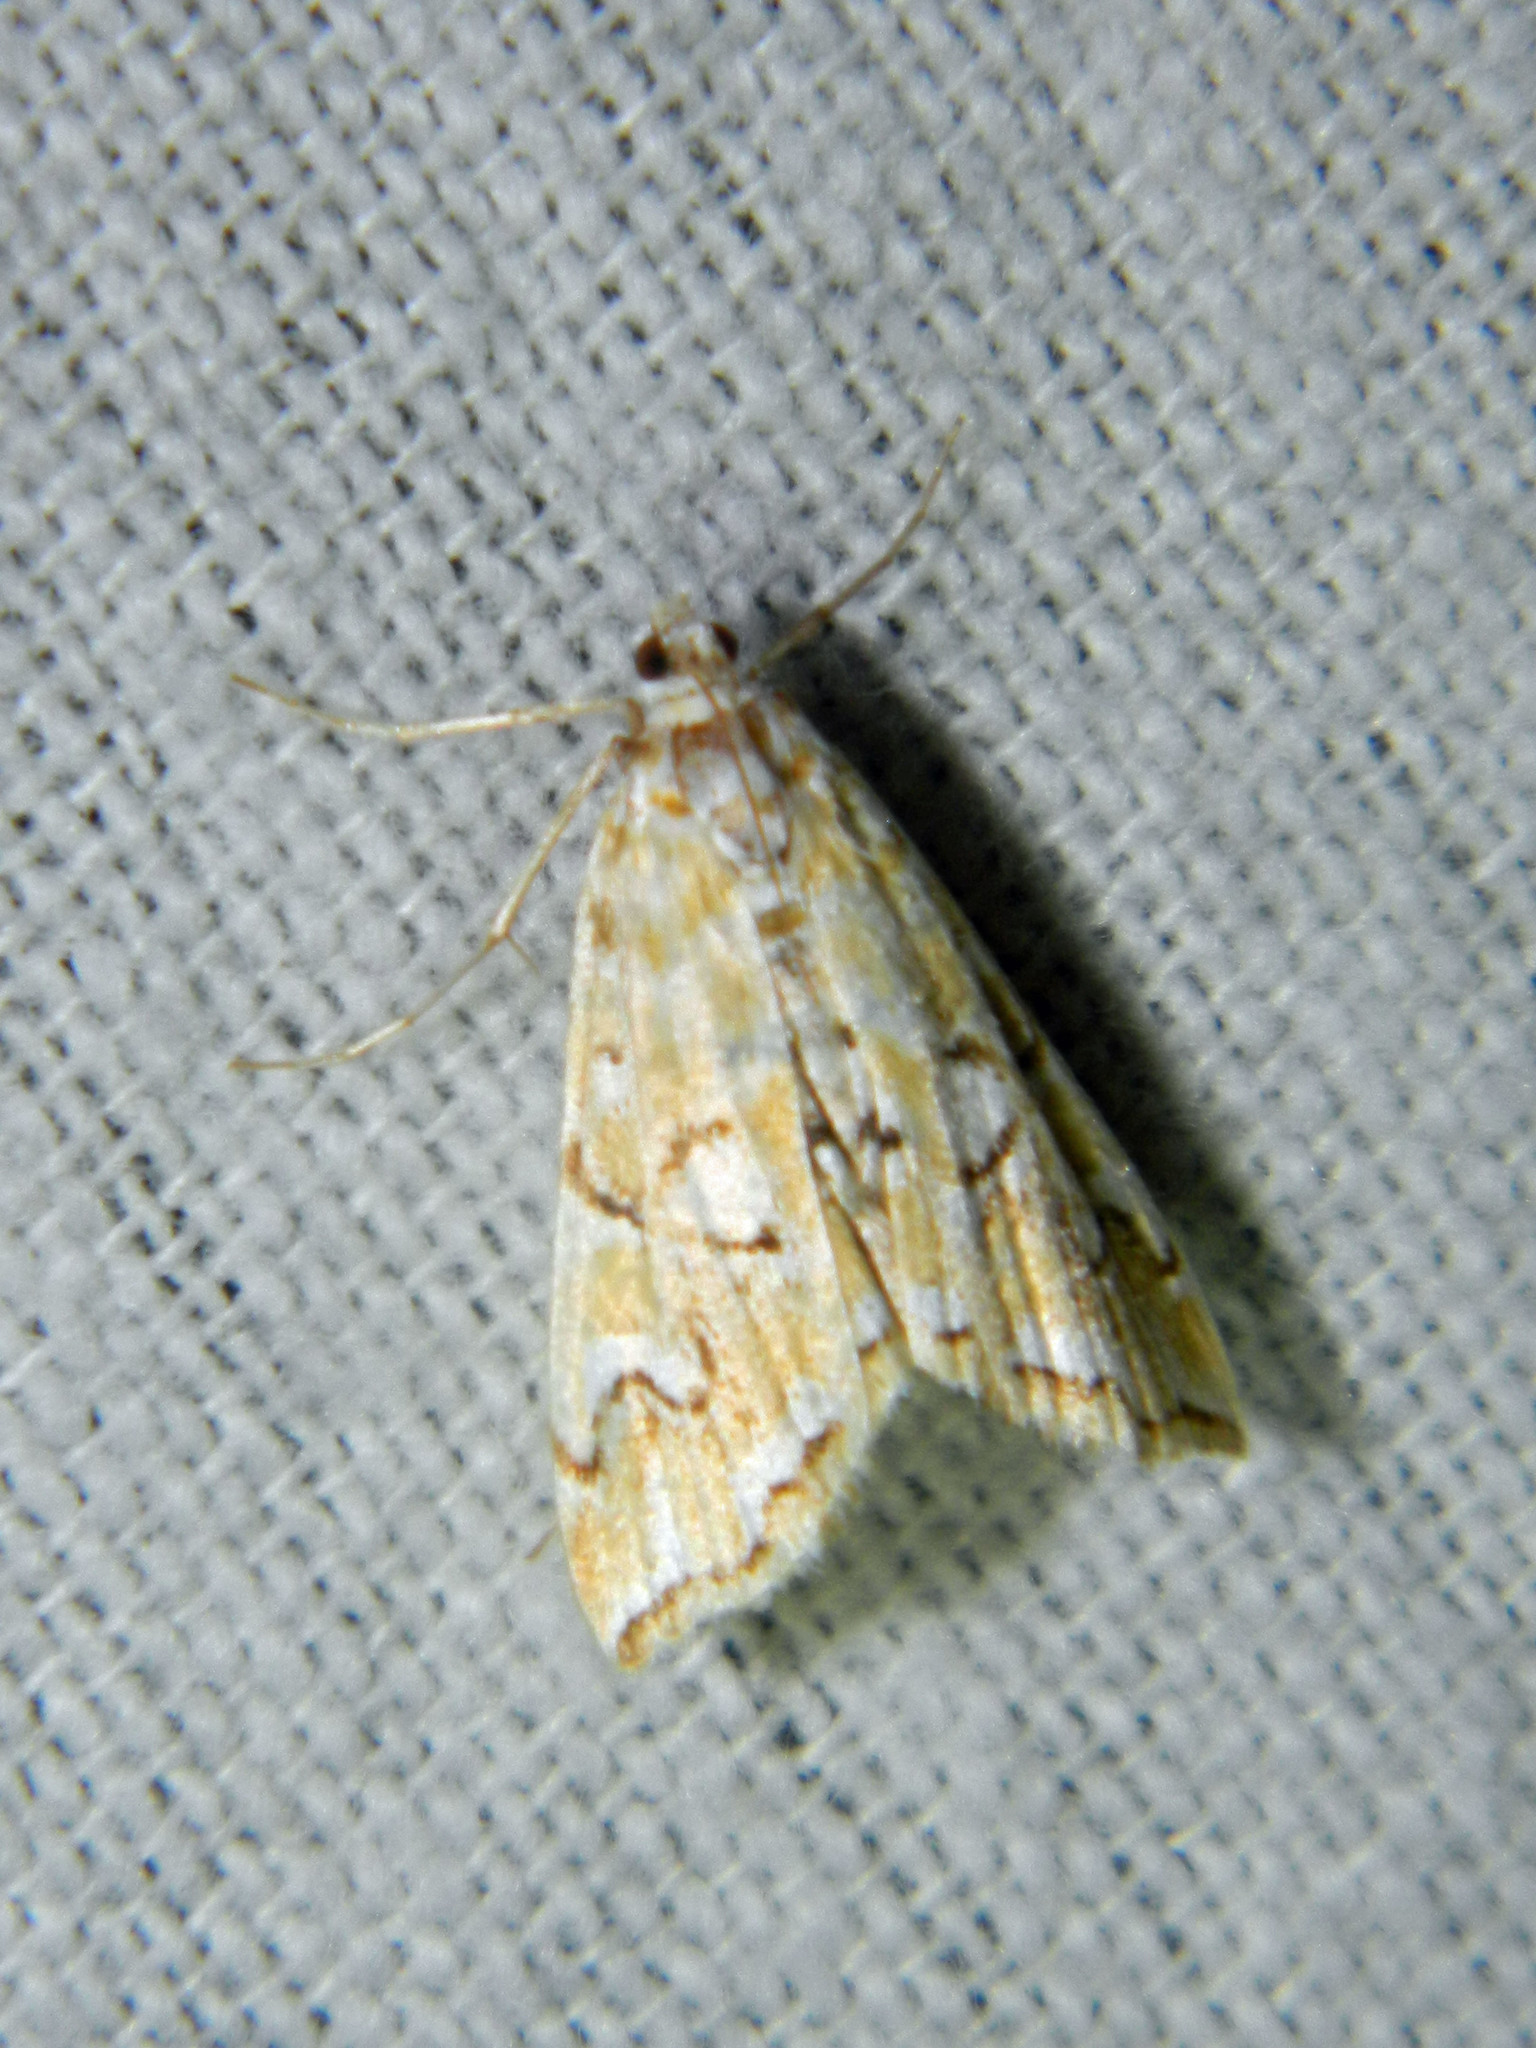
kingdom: Animalia
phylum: Arthropoda
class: Insecta
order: Lepidoptera
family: Crambidae
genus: Elophila
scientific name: Elophila icciusalis
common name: Pondside pyralid moth
